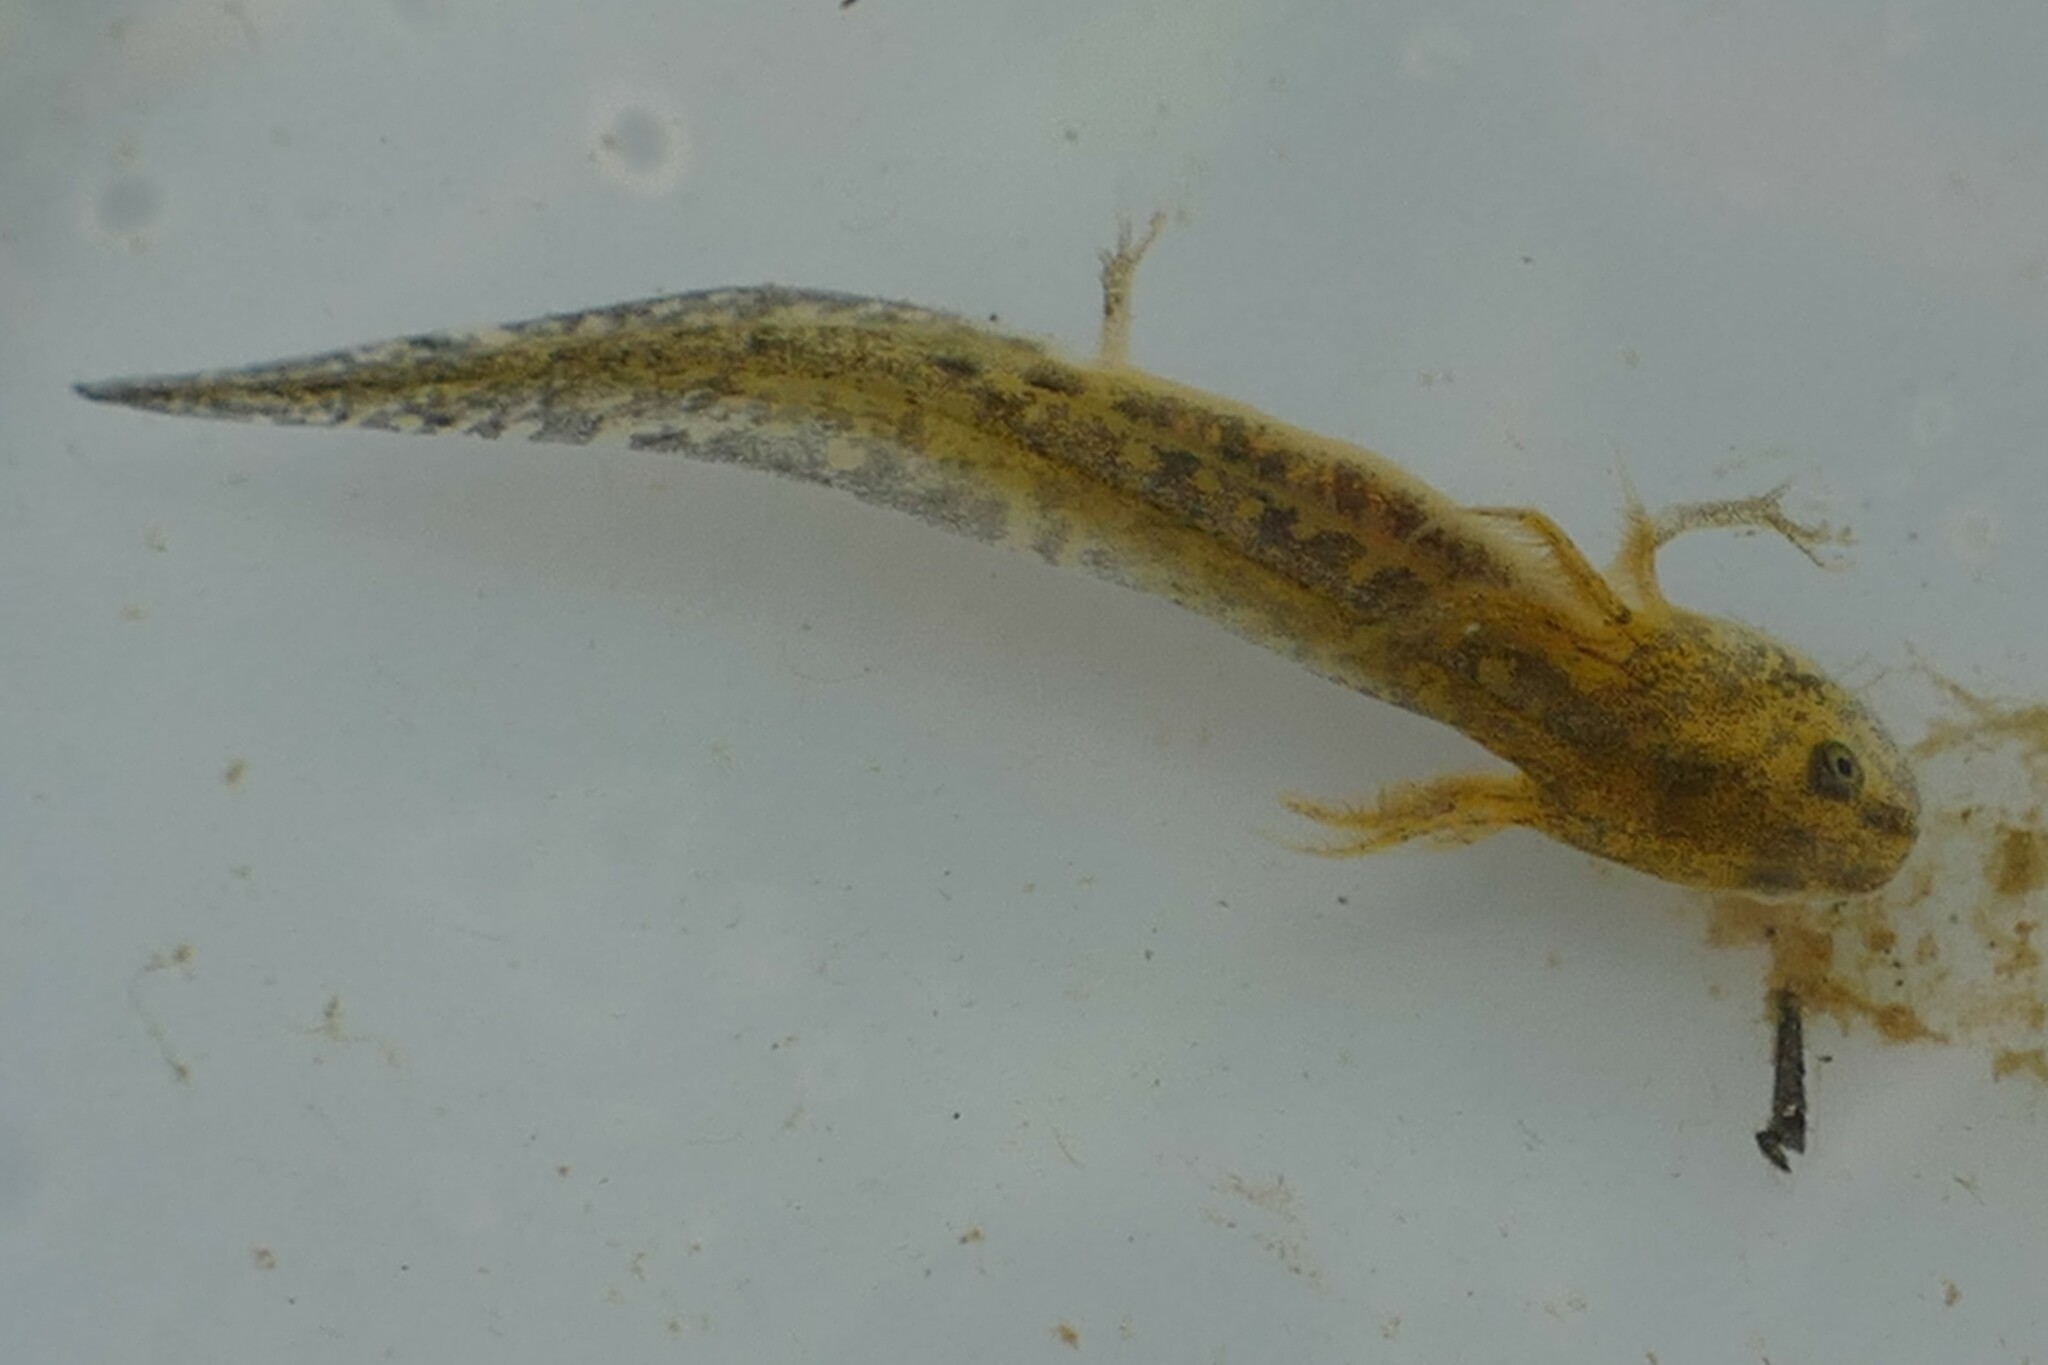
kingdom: Animalia
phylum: Chordata
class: Amphibia
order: Caudata
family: Salamandridae
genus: Pleurodeles
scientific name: Pleurodeles waltl
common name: Iberian ribbed newt
